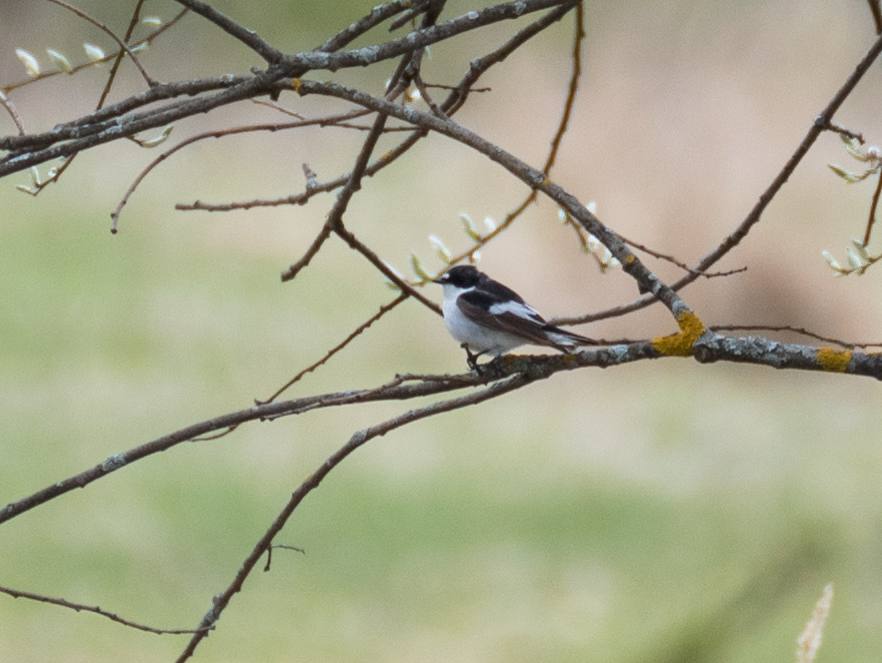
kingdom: Animalia
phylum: Chordata
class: Aves
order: Passeriformes
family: Muscicapidae
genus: Ficedula
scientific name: Ficedula hypoleuca
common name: European pied flycatcher
